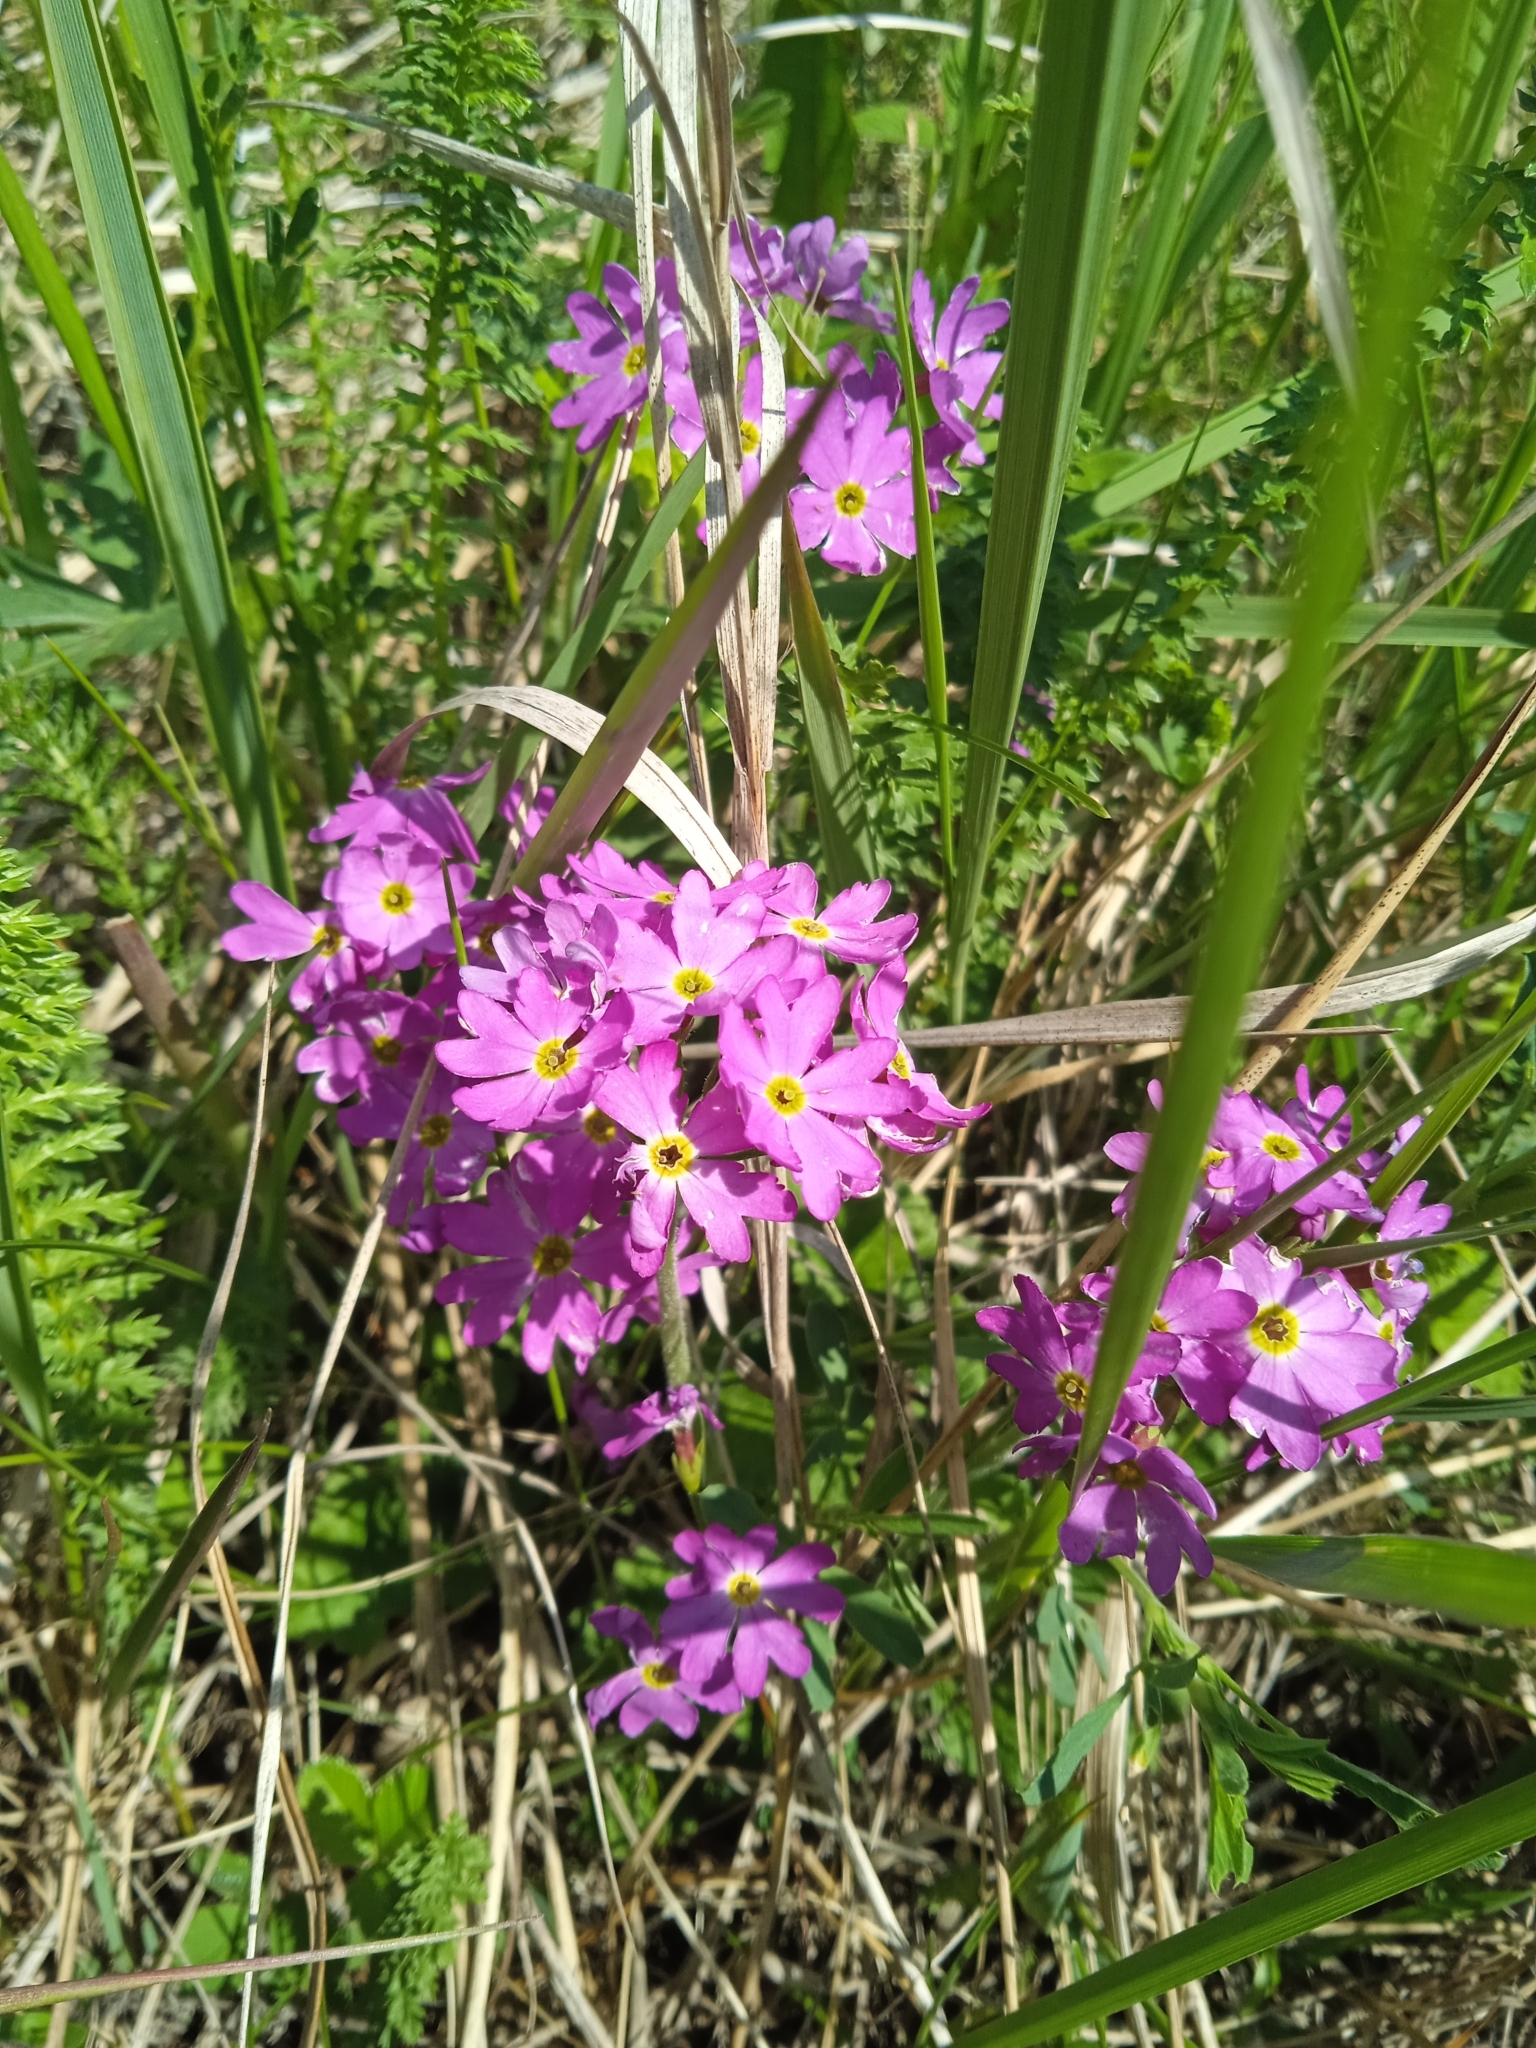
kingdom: Plantae
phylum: Tracheophyta
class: Magnoliopsida
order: Ericales
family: Primulaceae
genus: Primula
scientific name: Primula cortusoides
